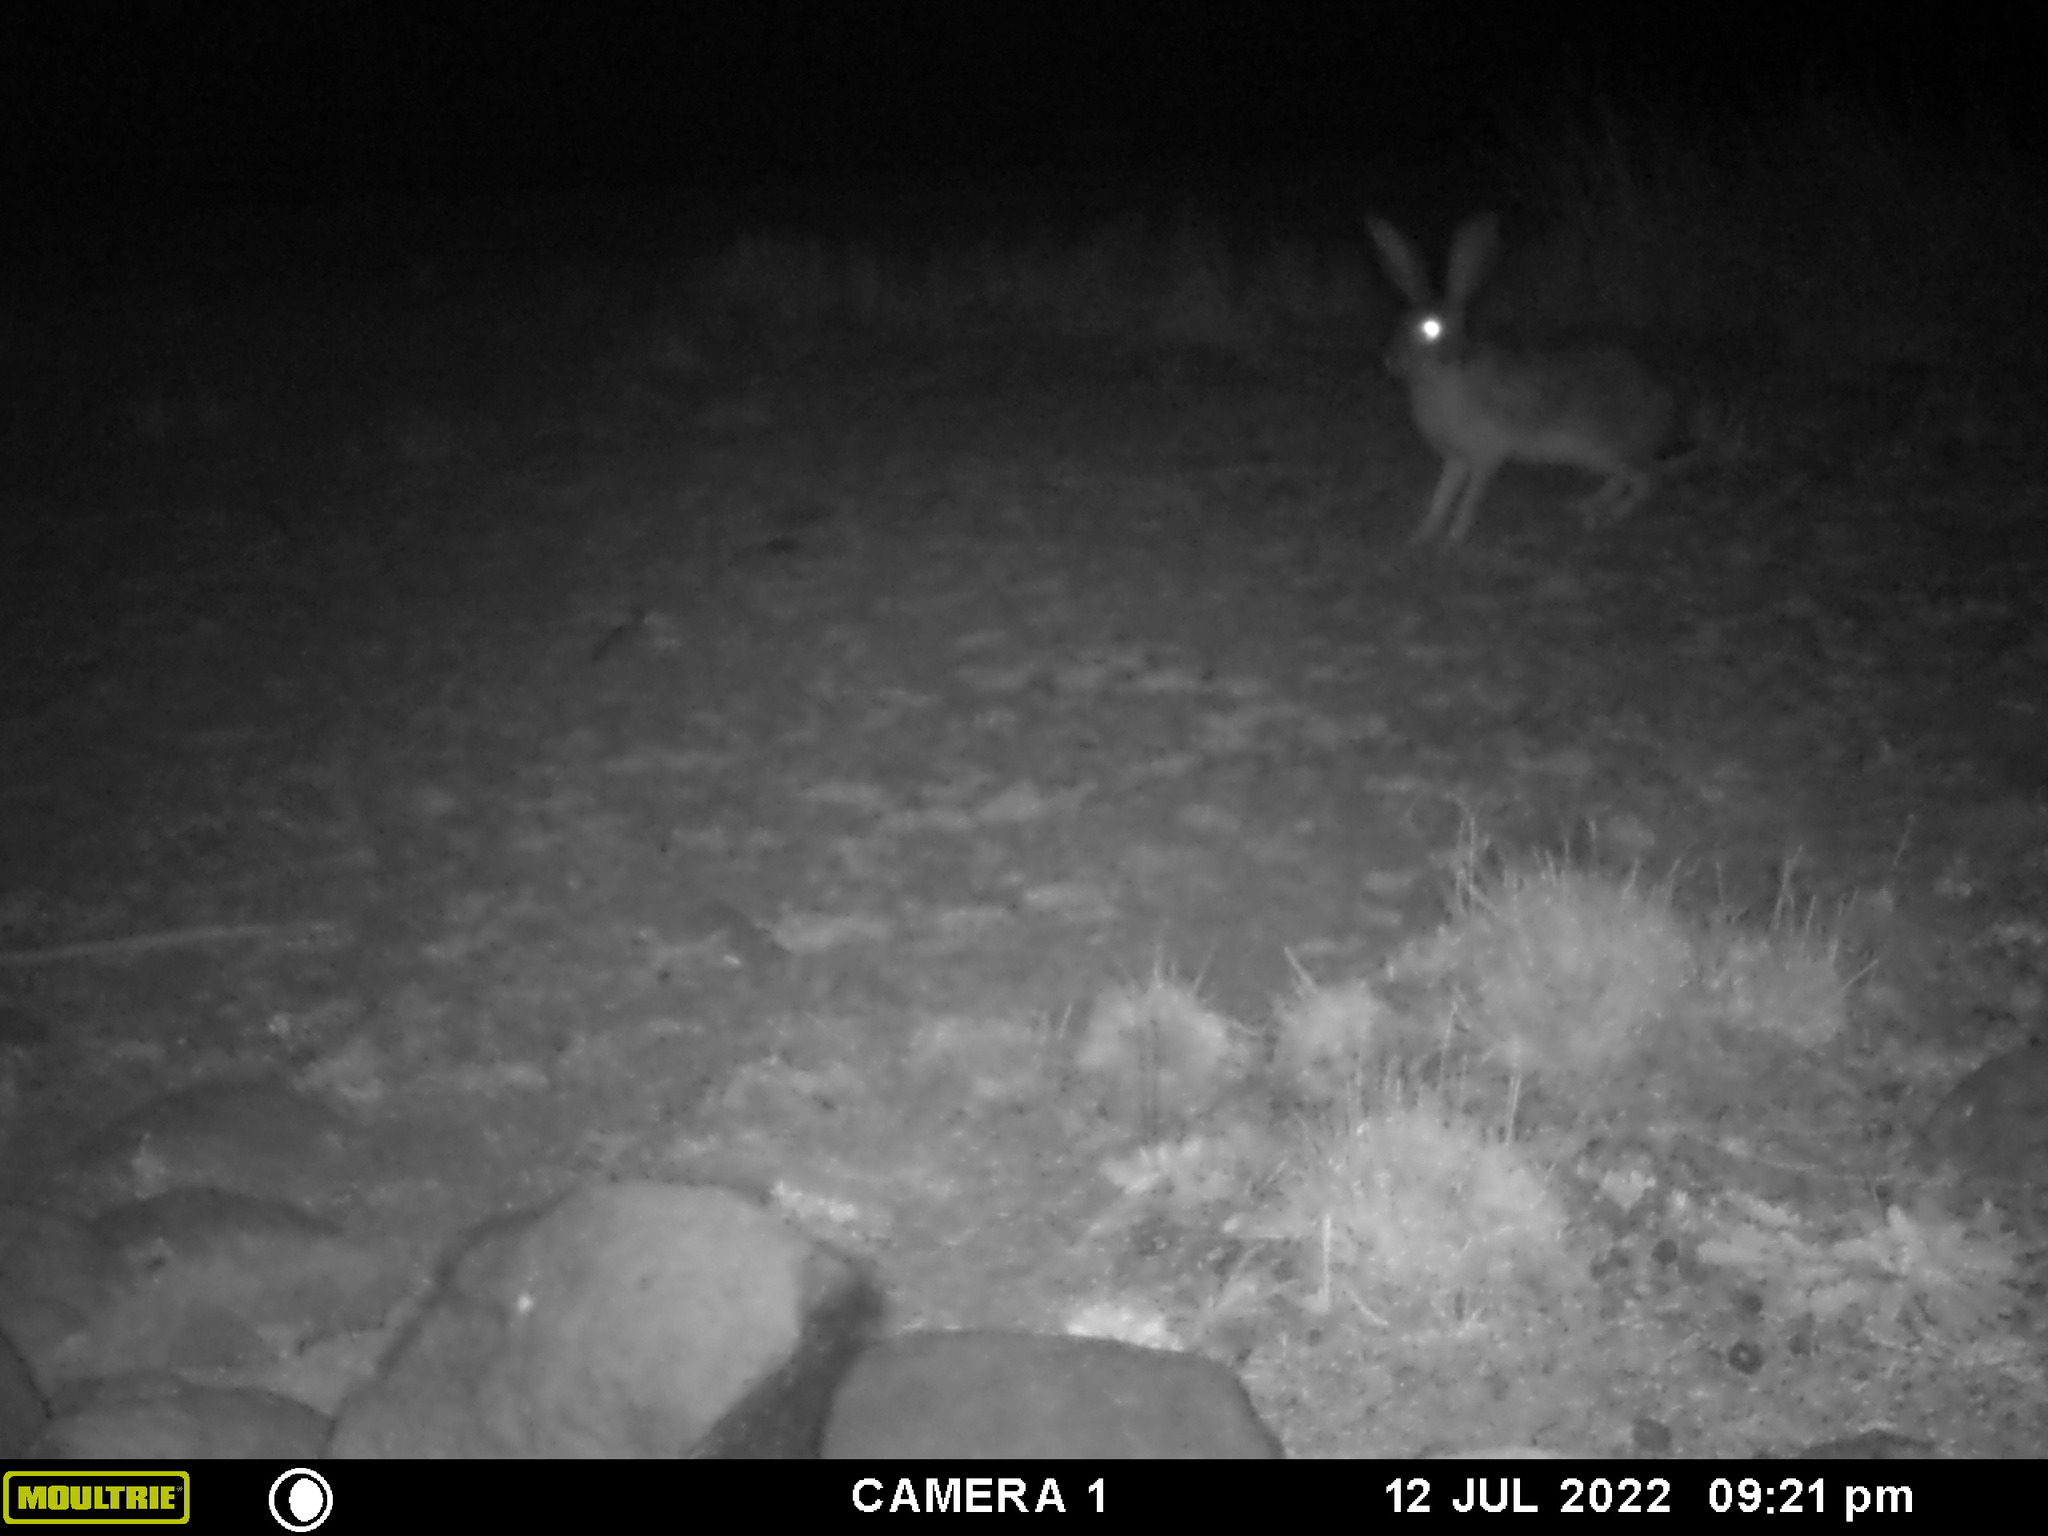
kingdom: Animalia
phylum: Chordata
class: Mammalia
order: Lagomorpha
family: Leporidae
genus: Lepus
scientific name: Lepus saxatilis
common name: Scrub hare
